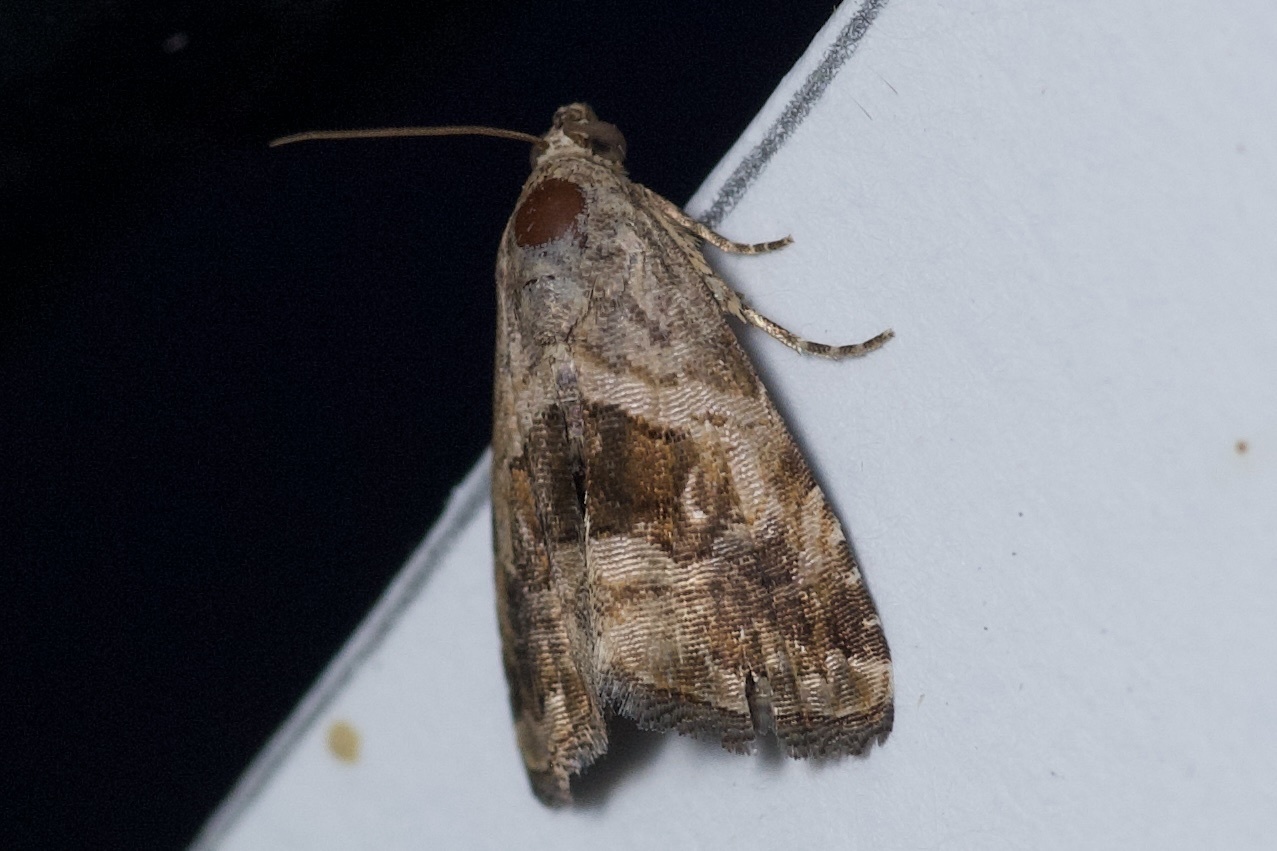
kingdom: Animalia
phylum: Arthropoda
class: Insecta
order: Lepidoptera
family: Noctuidae
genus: Tripudia
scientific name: Tripudia quadrifera
